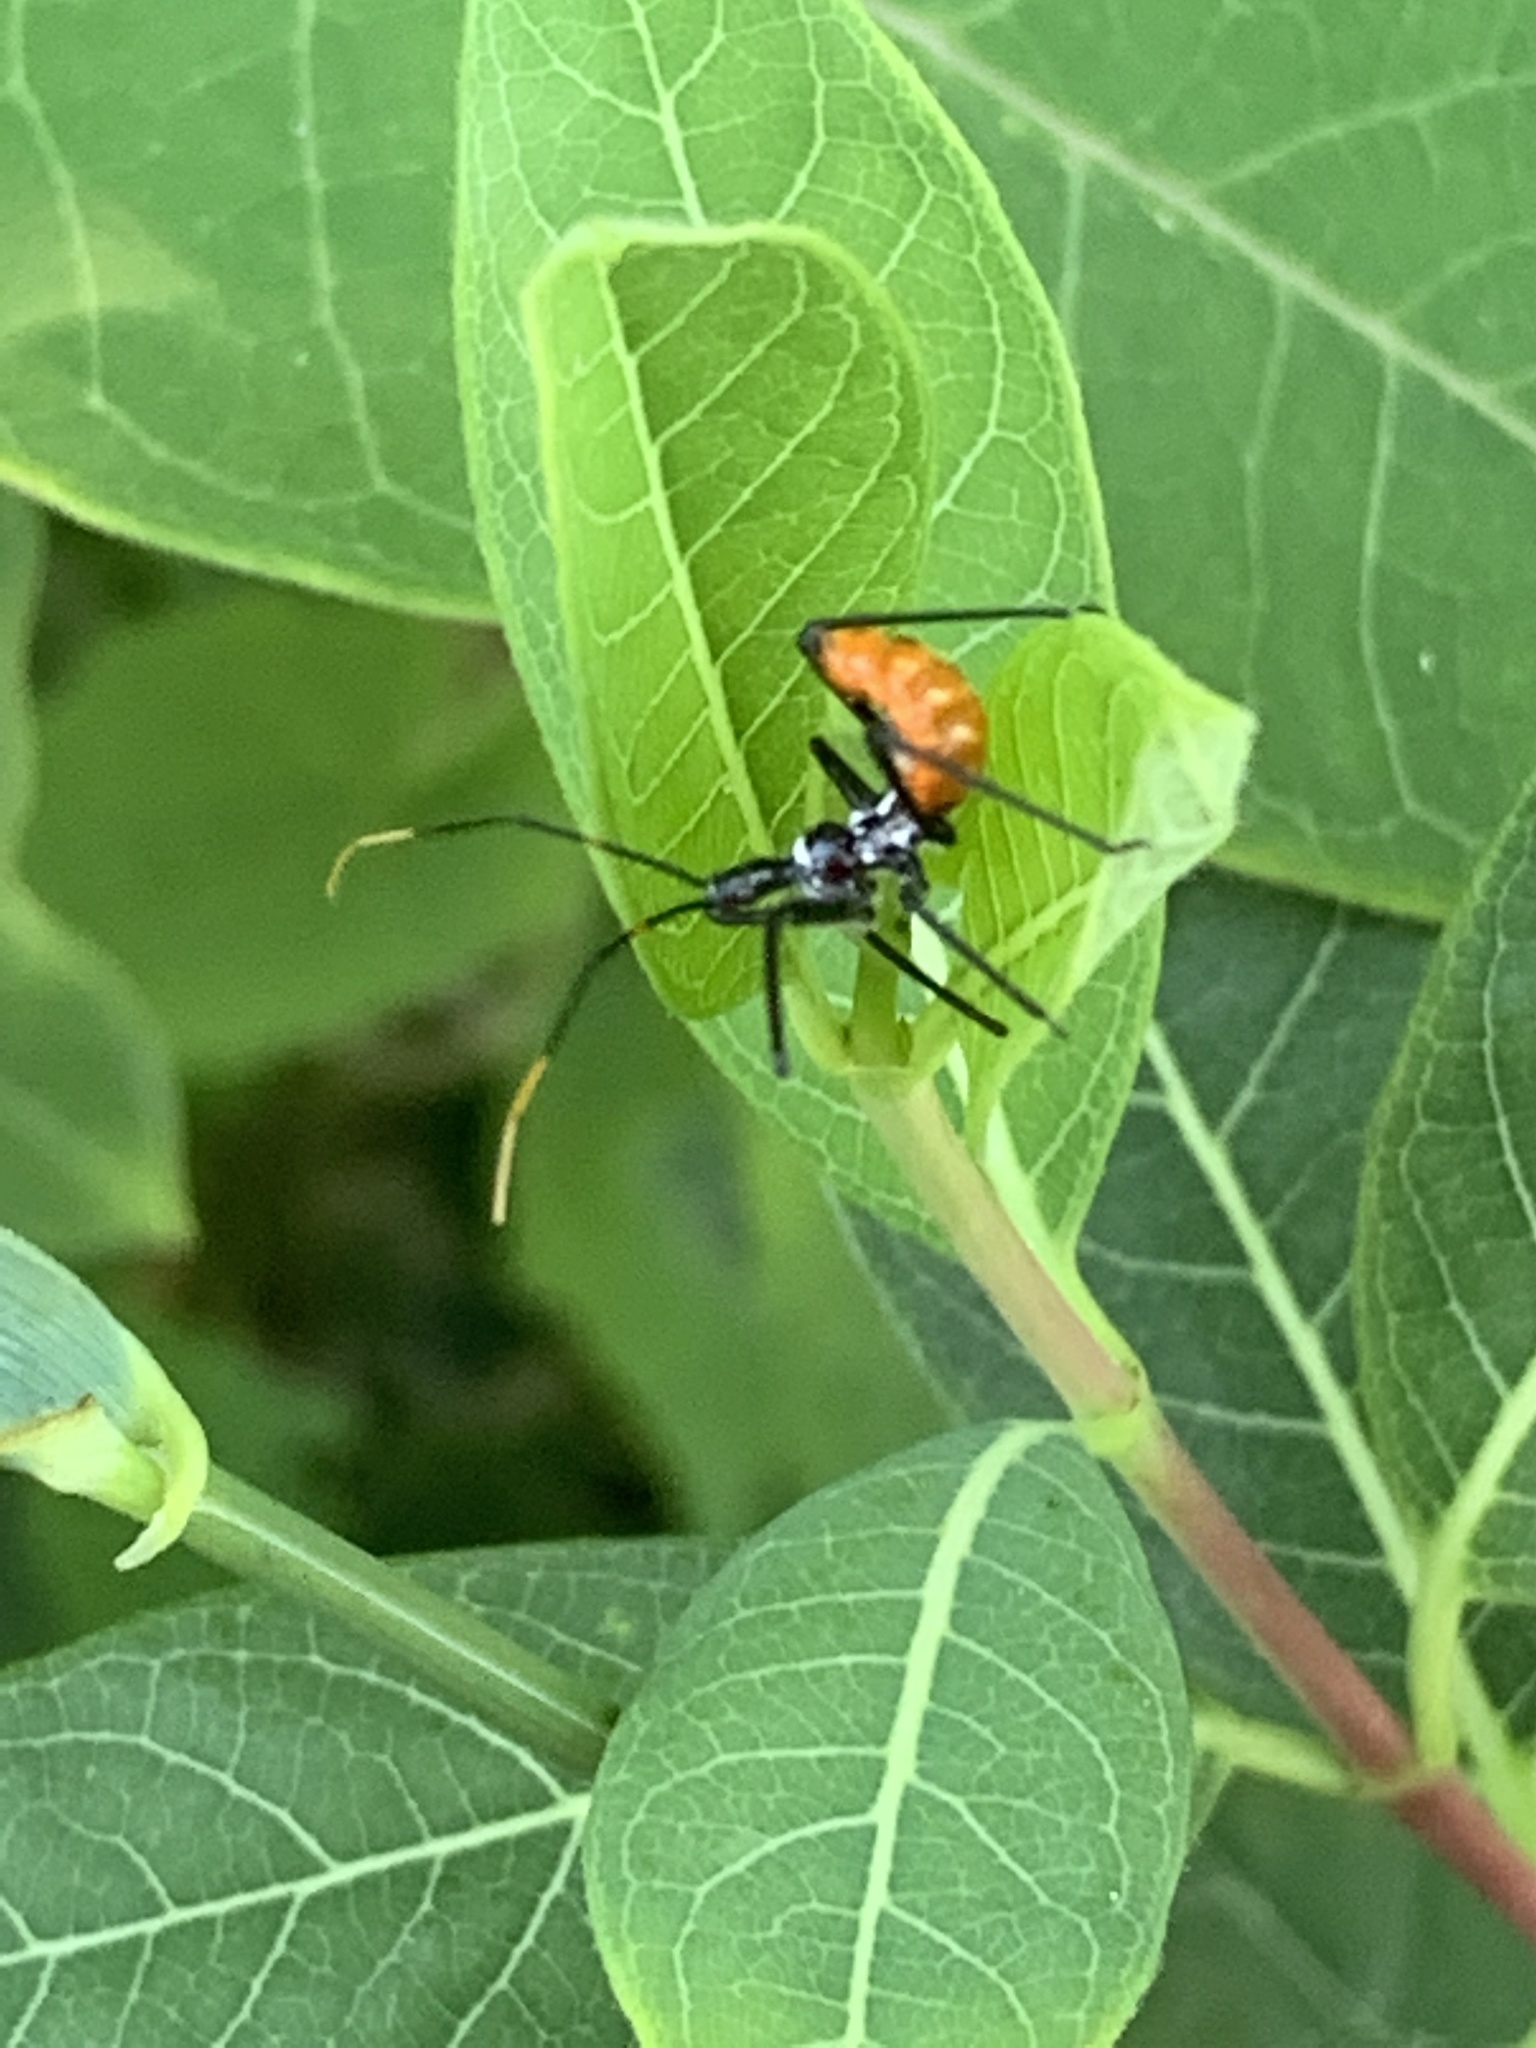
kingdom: Animalia
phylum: Arthropoda
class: Insecta
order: Hemiptera
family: Reduviidae
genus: Arilus
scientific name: Arilus cristatus
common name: North american wheel bug
